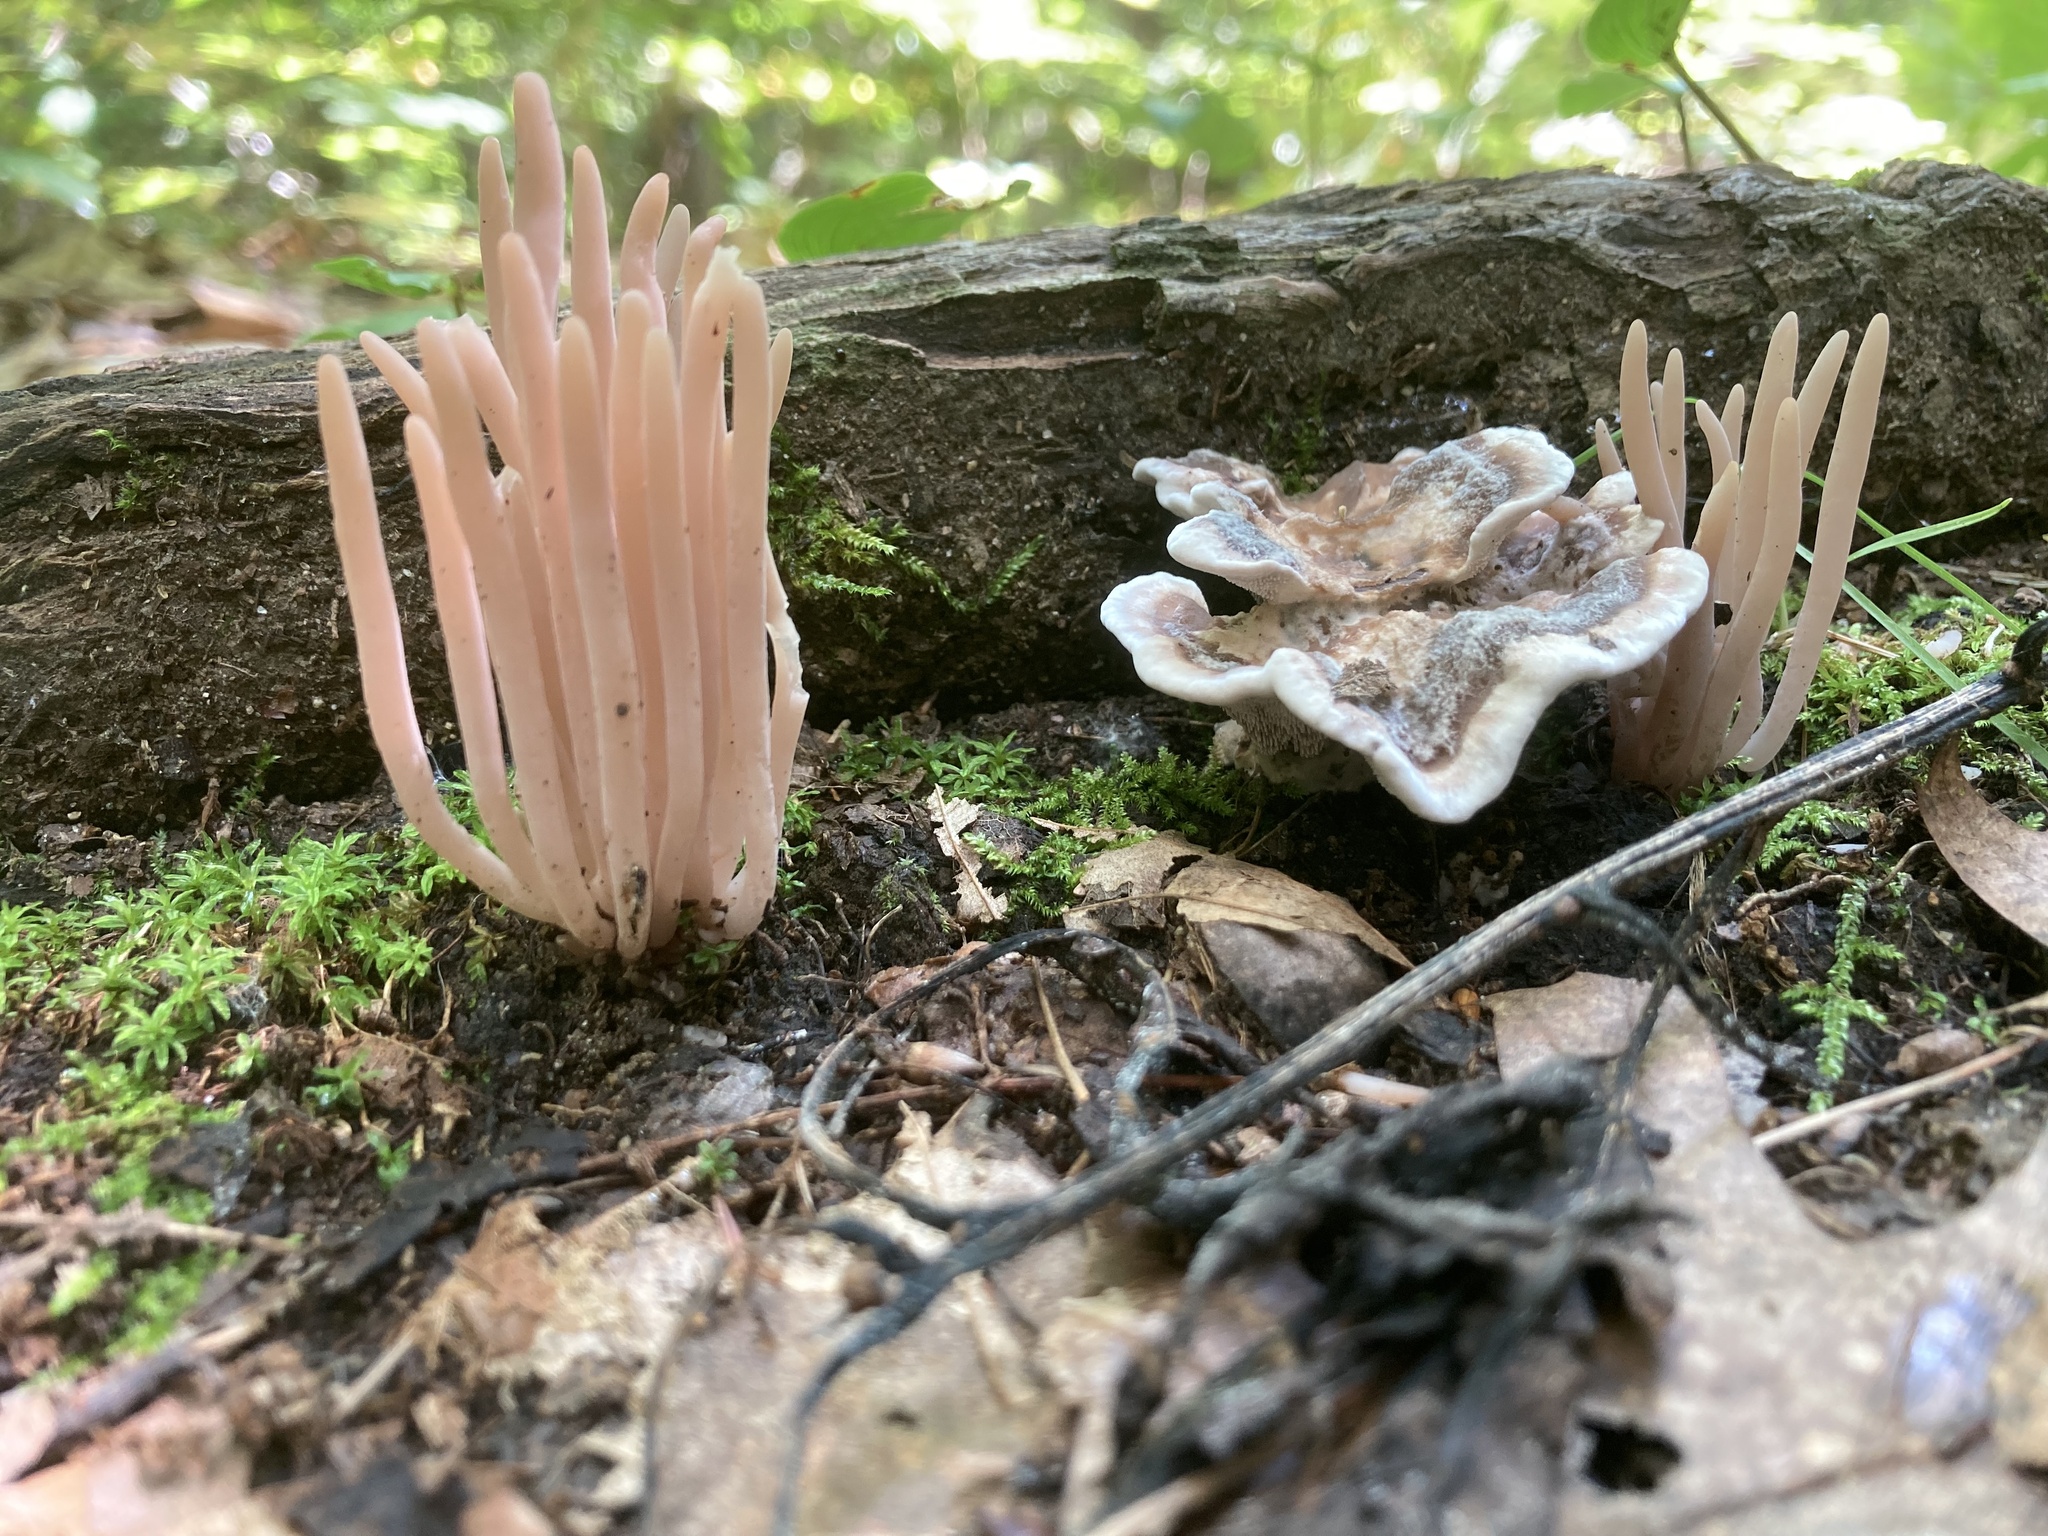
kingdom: Fungi
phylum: Basidiomycota
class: Agaricomycetes
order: Agaricales
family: Clavariaceae
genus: Clavaria
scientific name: Clavaria fumosa
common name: Smoky spindles
